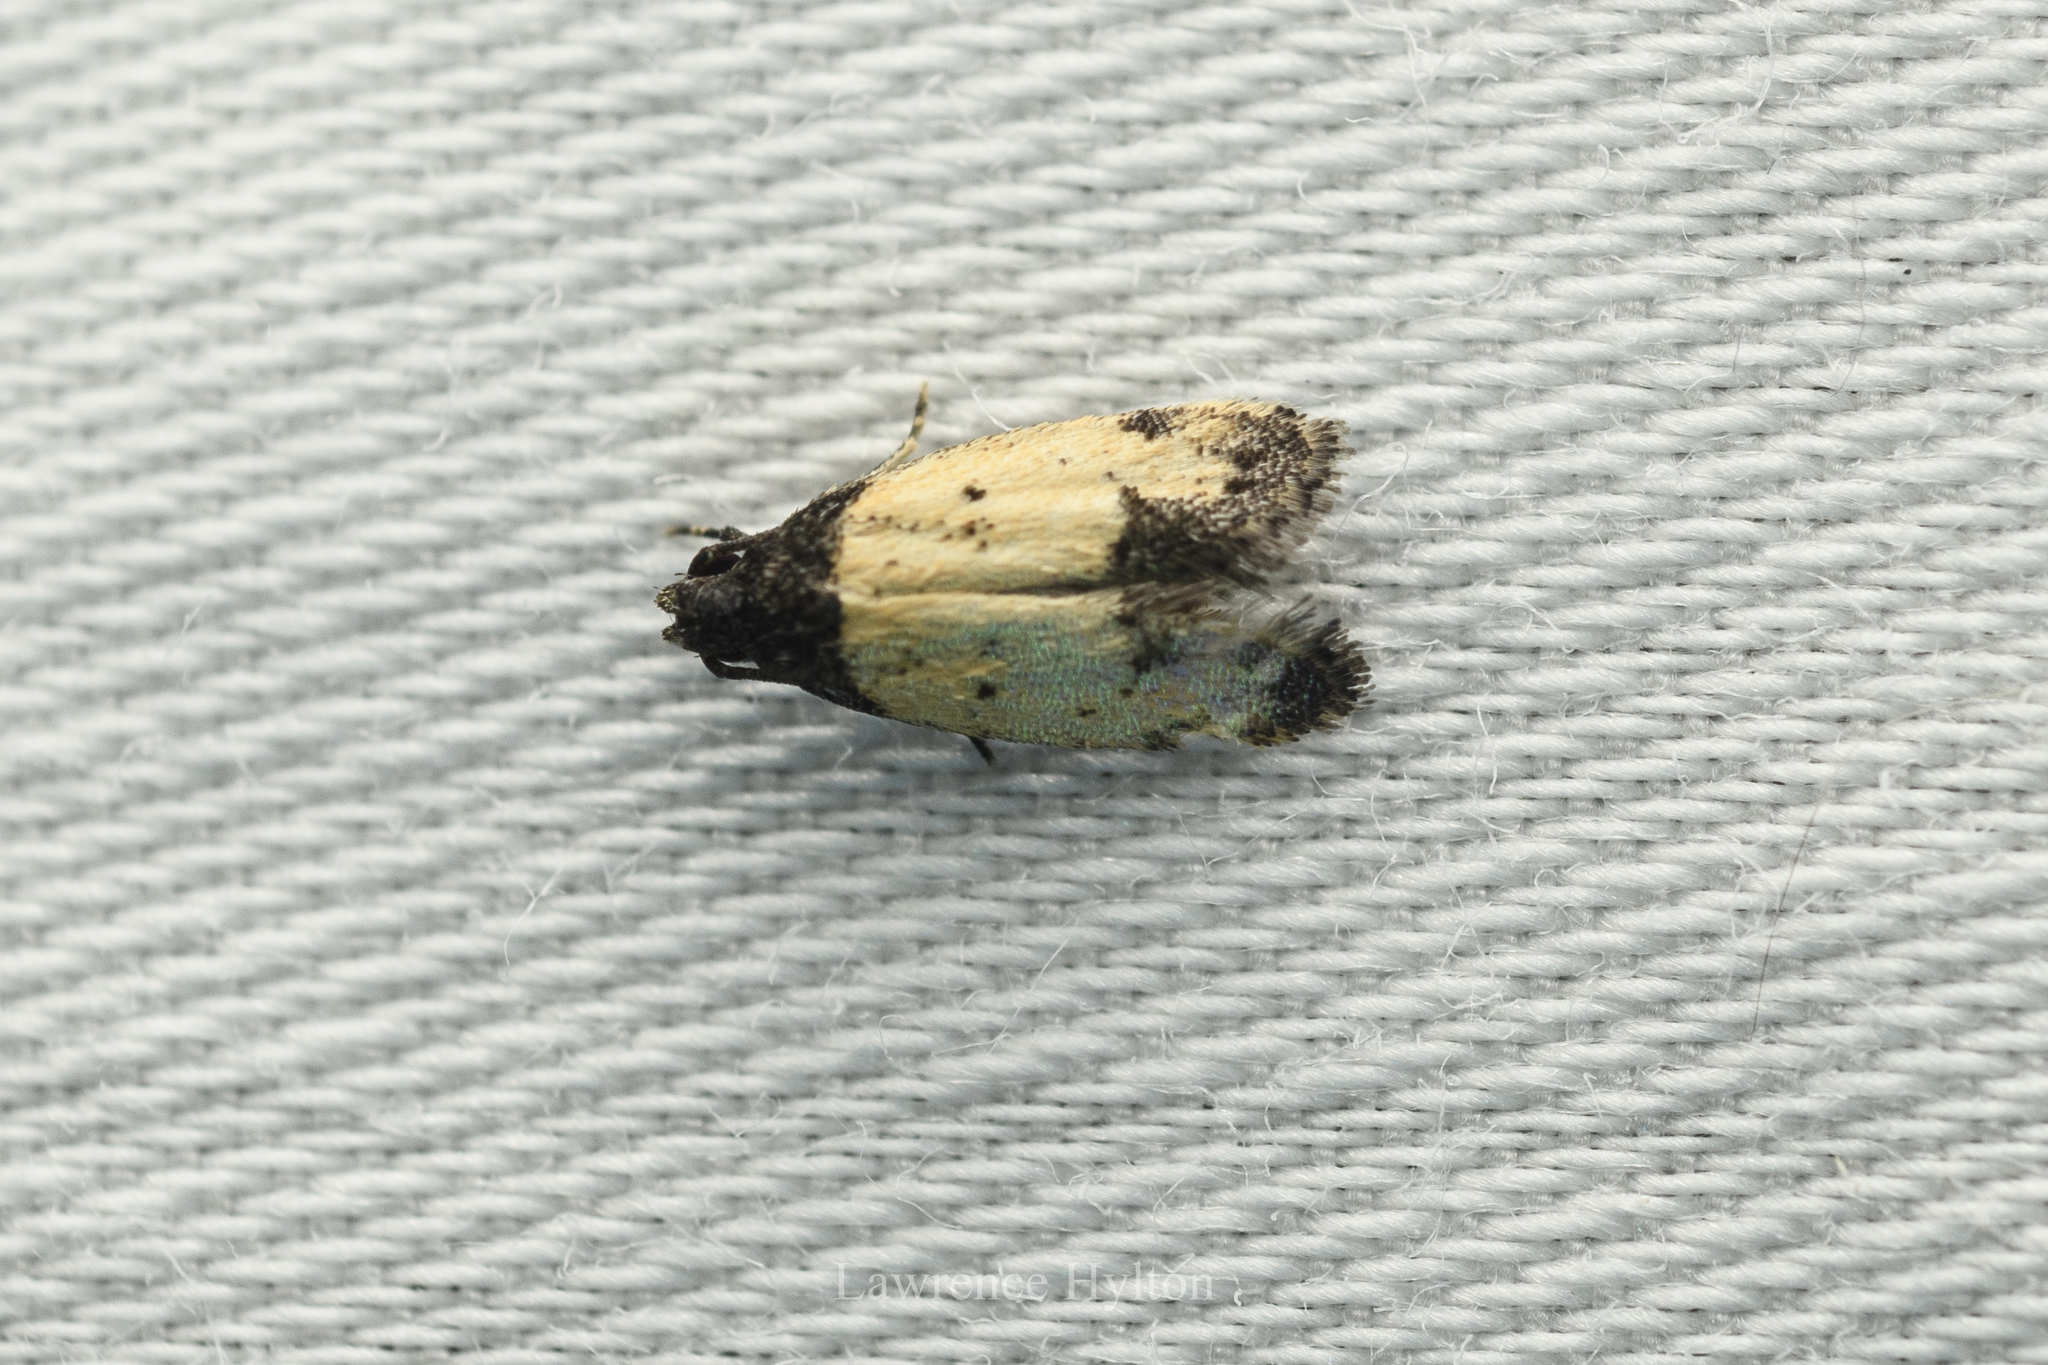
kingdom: Animalia
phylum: Arthropoda
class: Insecta
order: Lepidoptera
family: Oecophoridae
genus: Tyrolimnas
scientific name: Tyrolimnas anthraconesa
